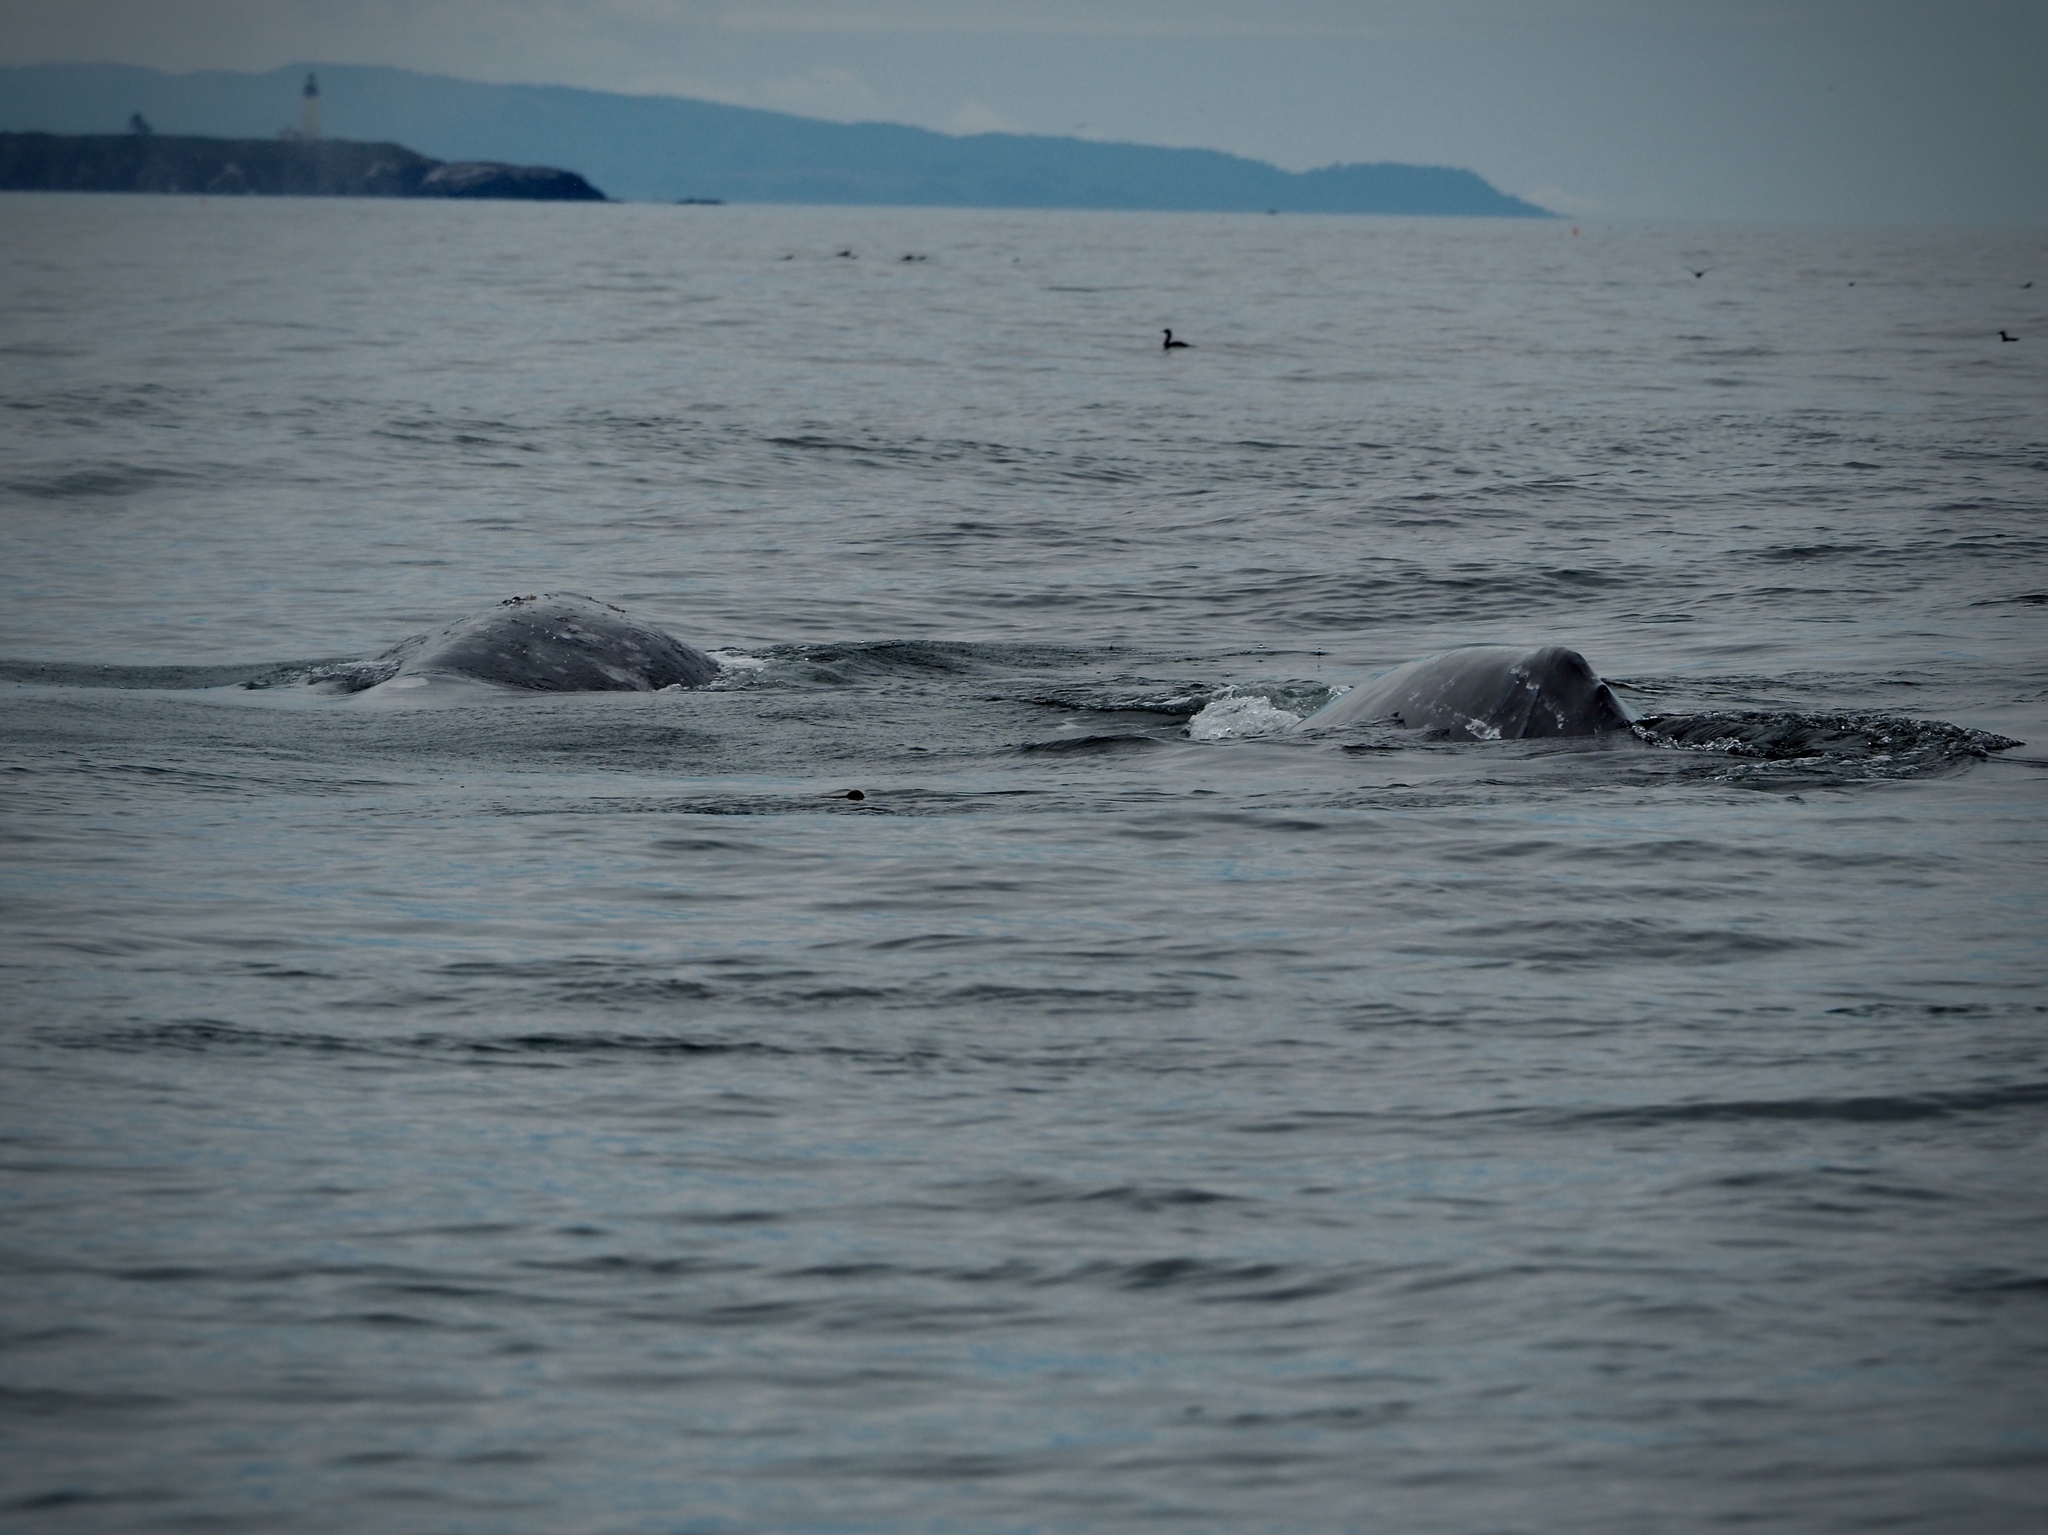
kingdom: Animalia
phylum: Chordata
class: Mammalia
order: Cetacea
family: Eschrichtiidae
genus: Eschrichtius
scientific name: Eschrichtius robustus
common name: Gray whale
